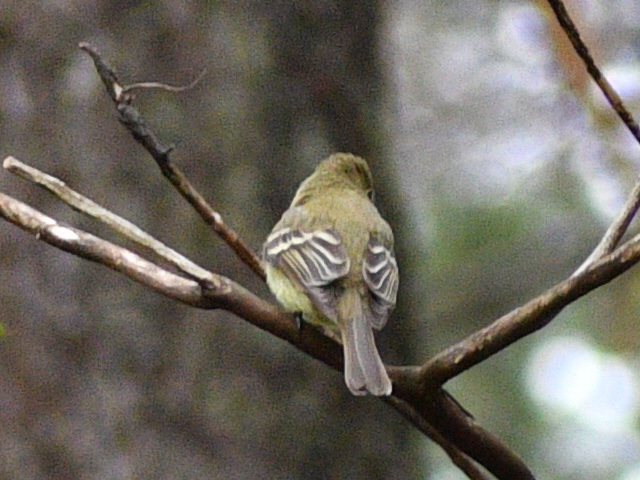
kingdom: Animalia
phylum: Chordata
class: Aves
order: Passeriformes
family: Tyrannidae
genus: Empidonax
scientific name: Empidonax difficilis
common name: Pacific-slope flycatcher
